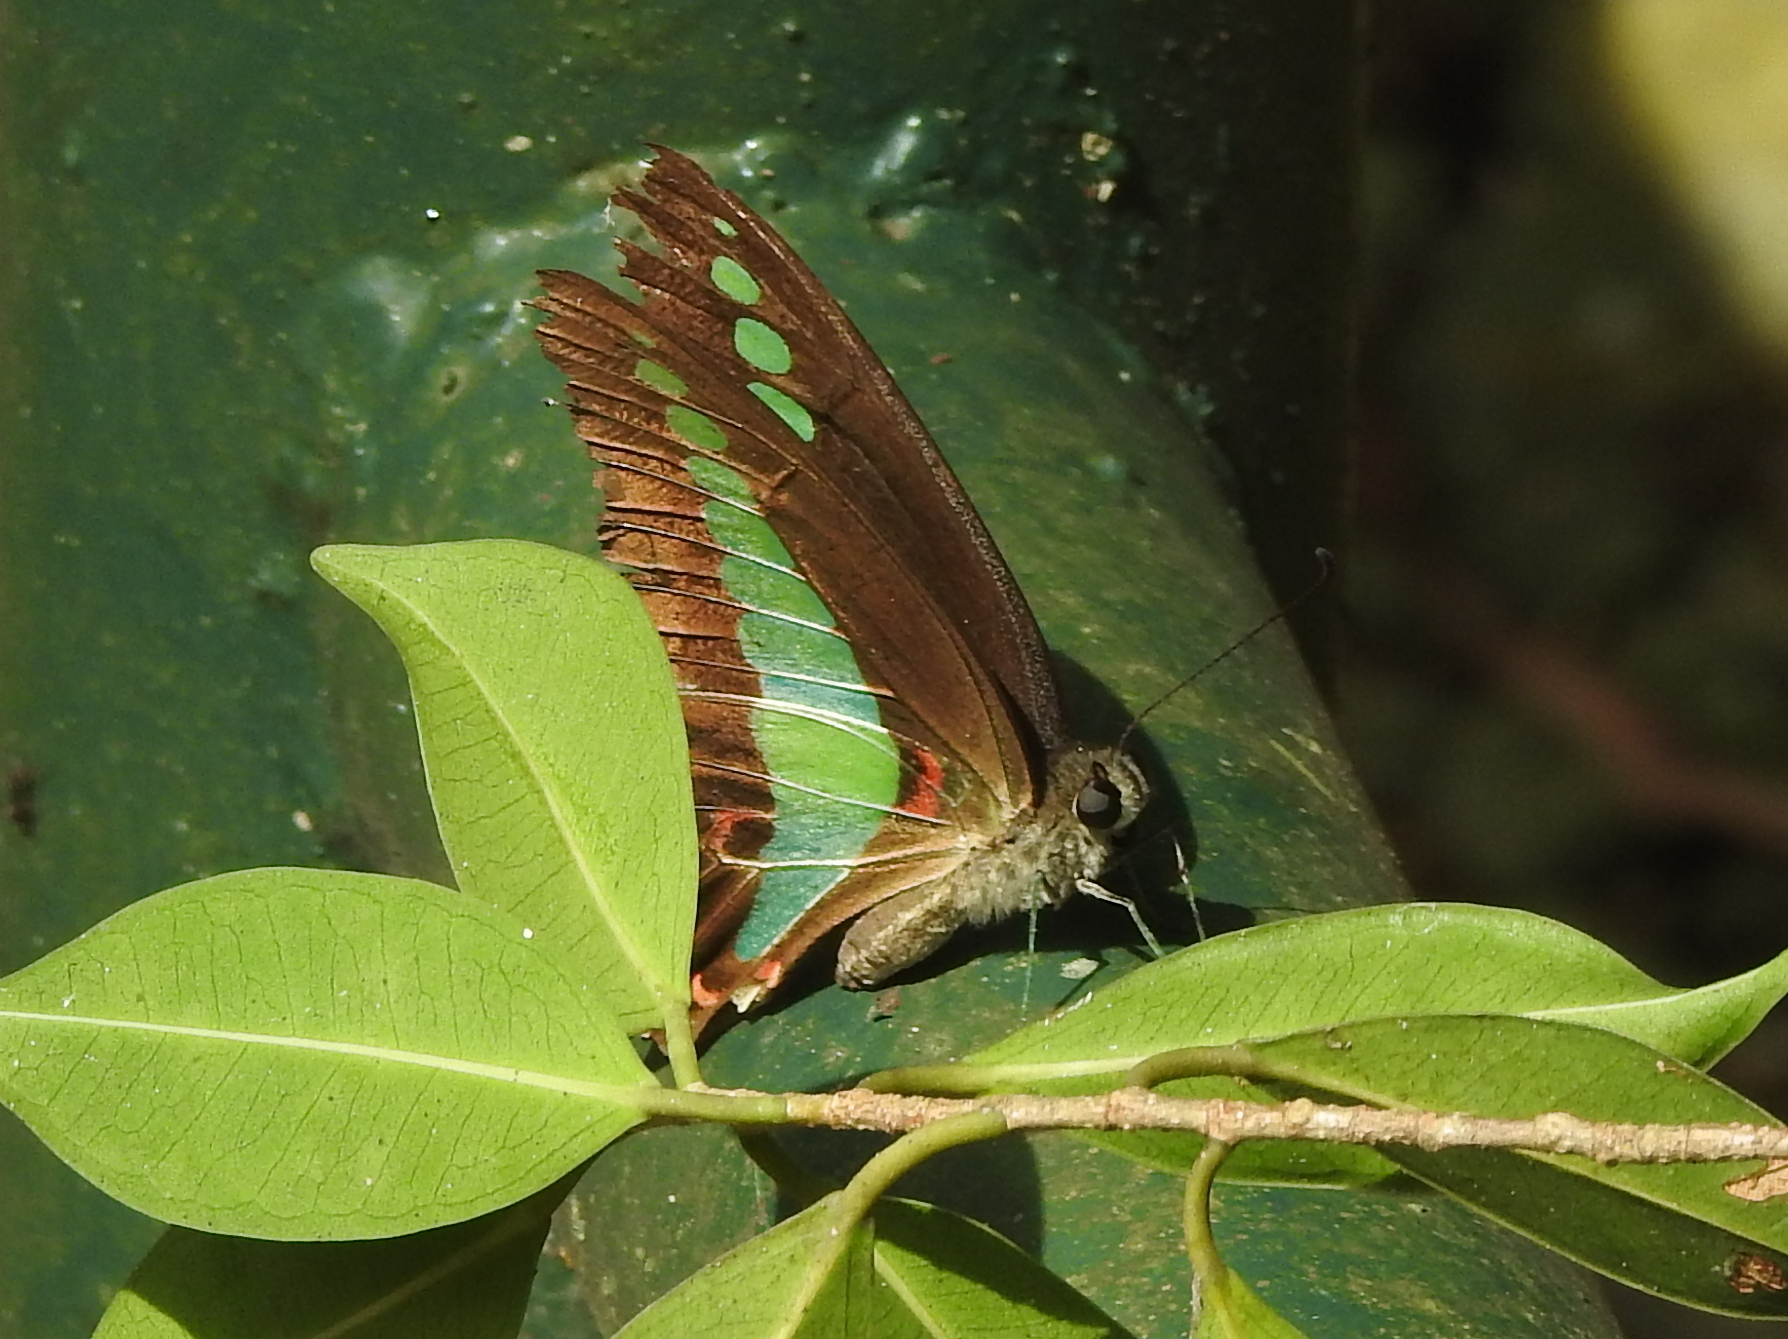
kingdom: Fungi
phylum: Ascomycota
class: Sordariomycetes
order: Microascales
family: Microascaceae
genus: Graphium
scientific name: Graphium sarpedon
